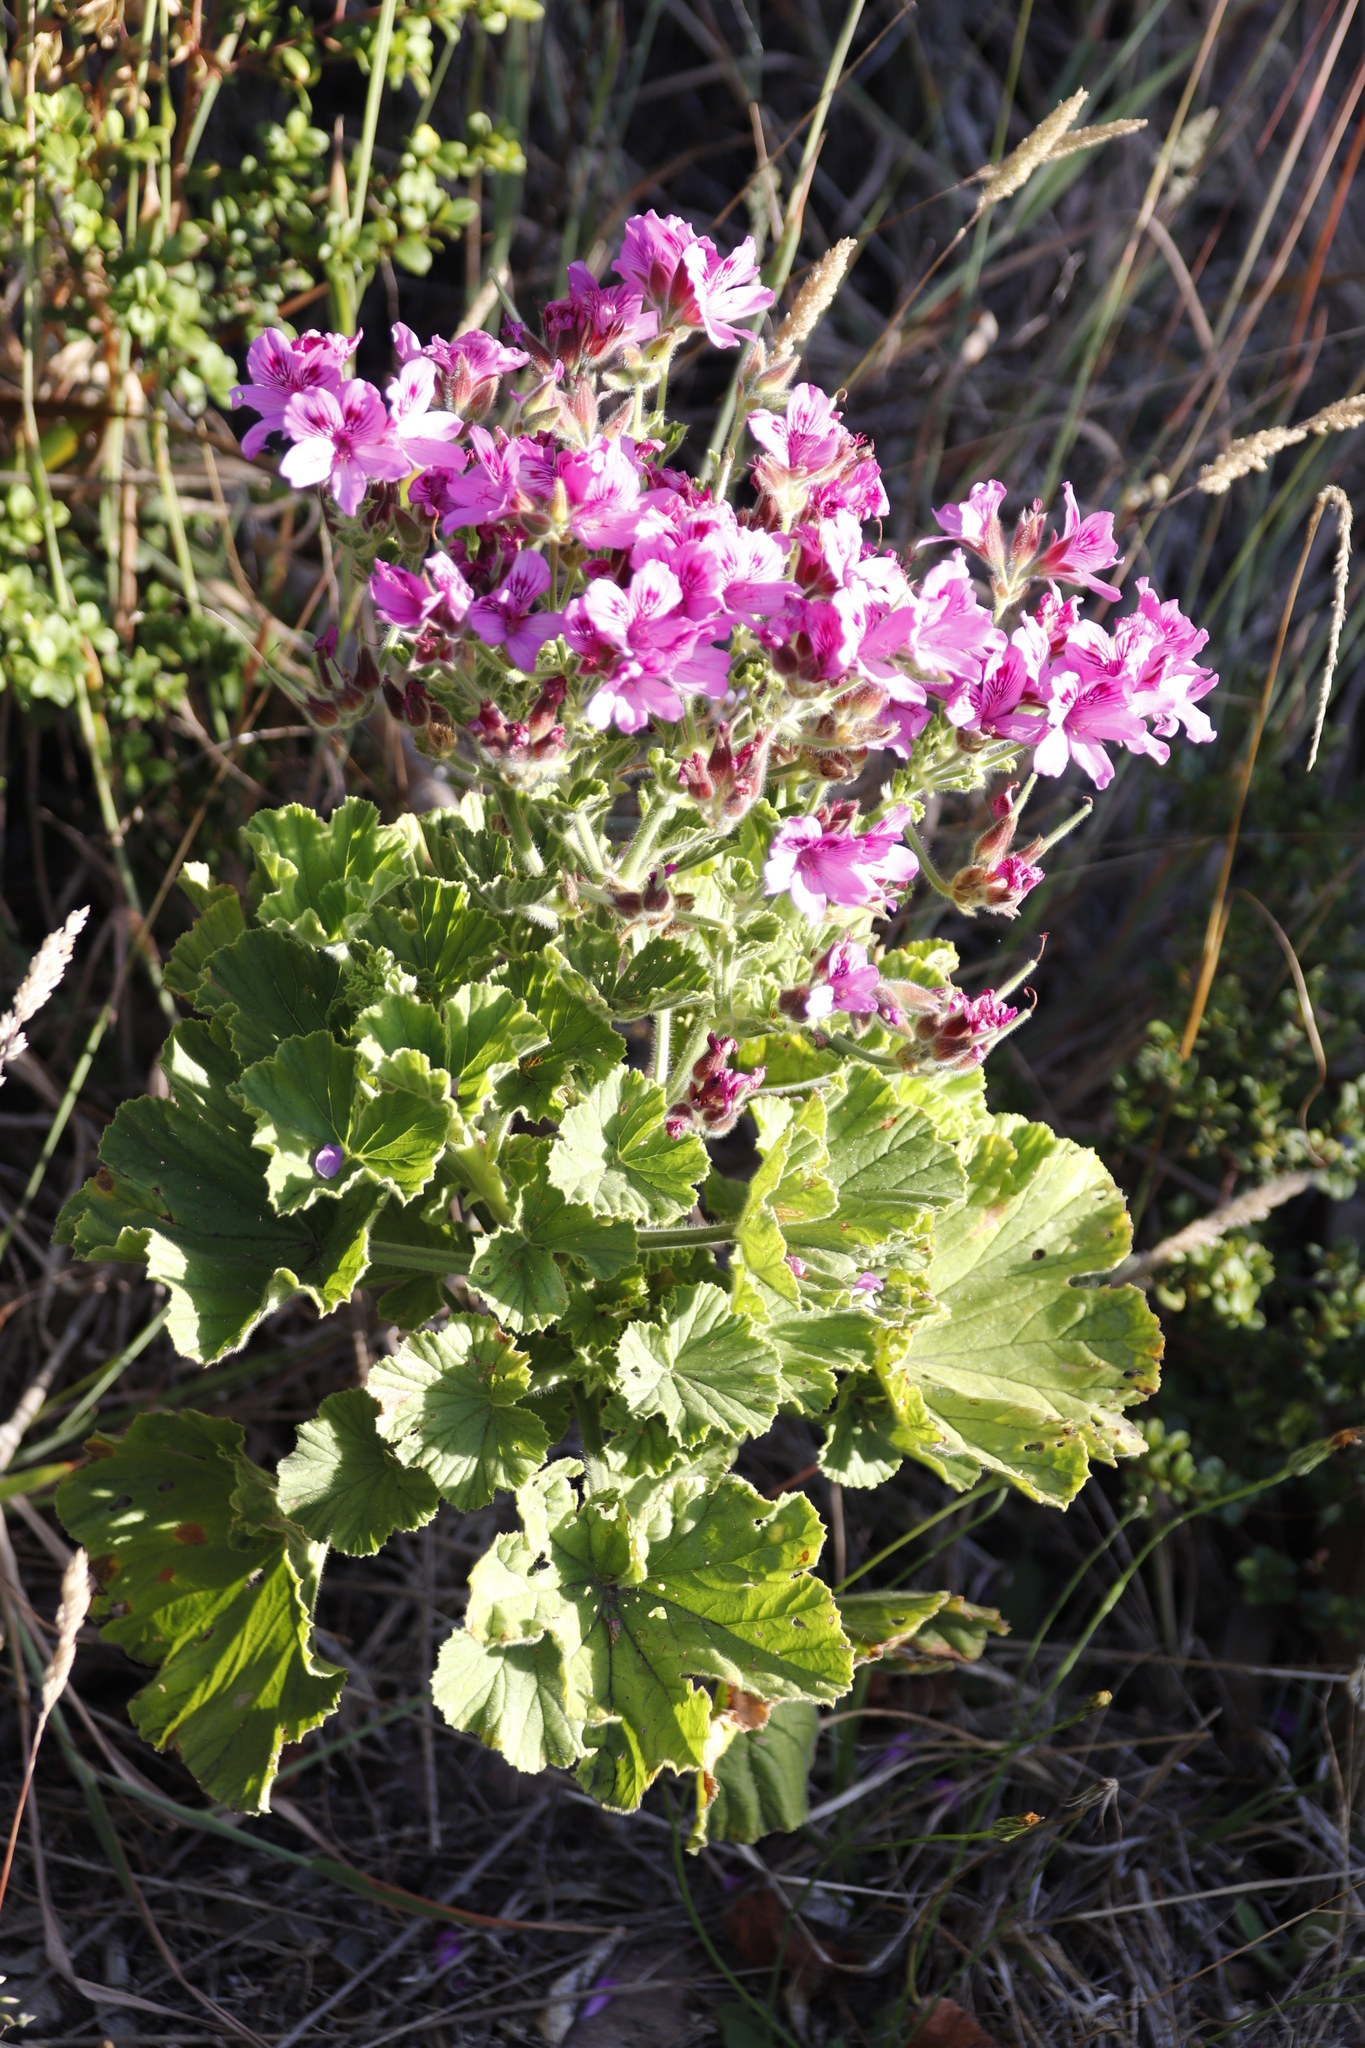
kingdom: Plantae
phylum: Tracheophyta
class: Magnoliopsida
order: Geraniales
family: Geraniaceae
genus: Pelargonium
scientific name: Pelargonium cucullatum
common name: Tree pelargonium
